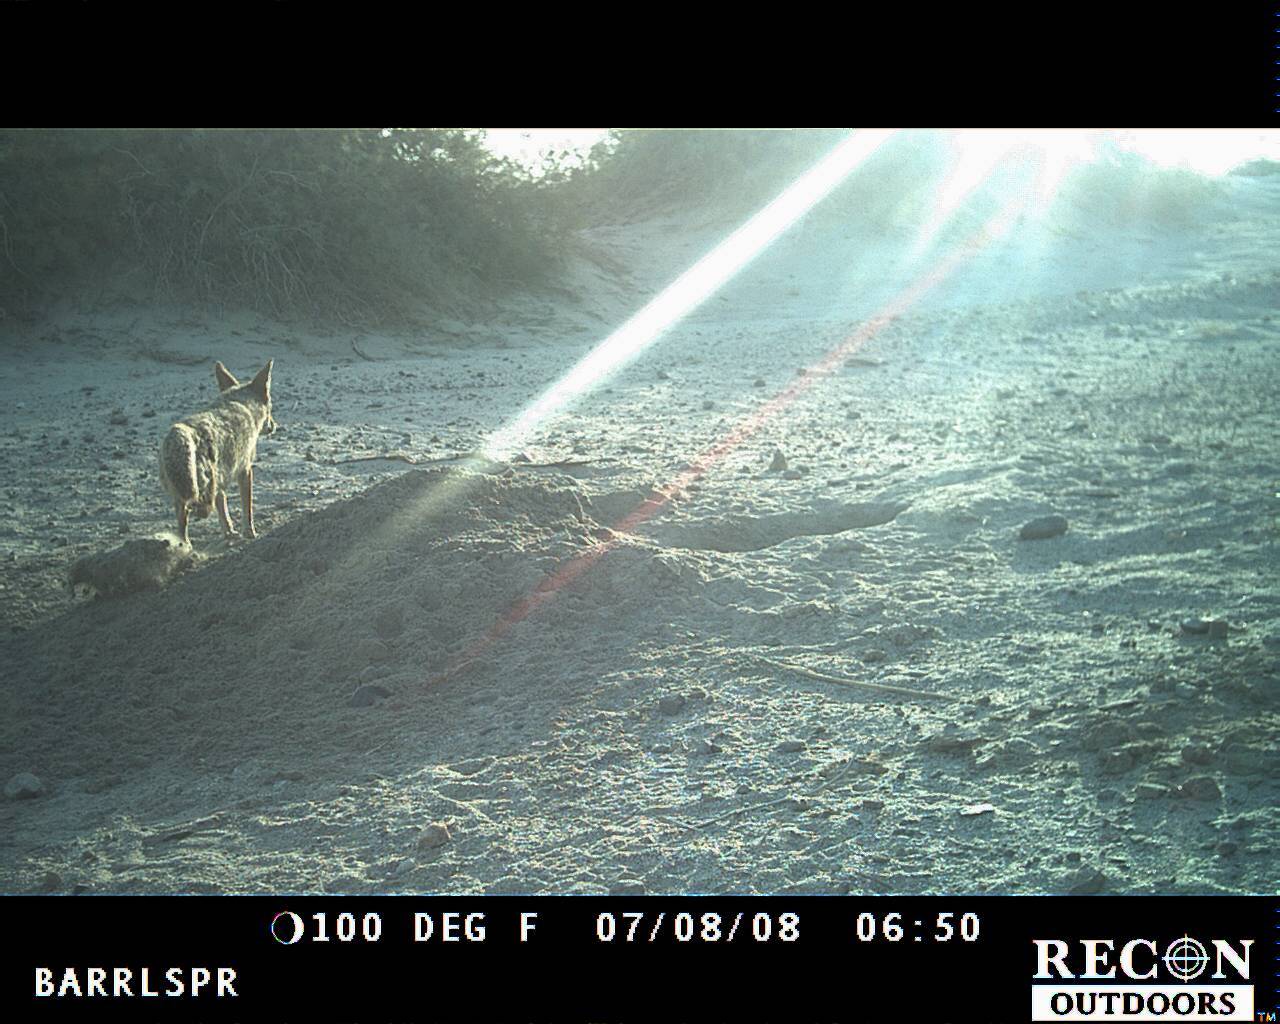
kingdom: Animalia
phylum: Chordata
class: Mammalia
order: Carnivora
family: Canidae
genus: Canis
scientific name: Canis latrans
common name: Coyote
